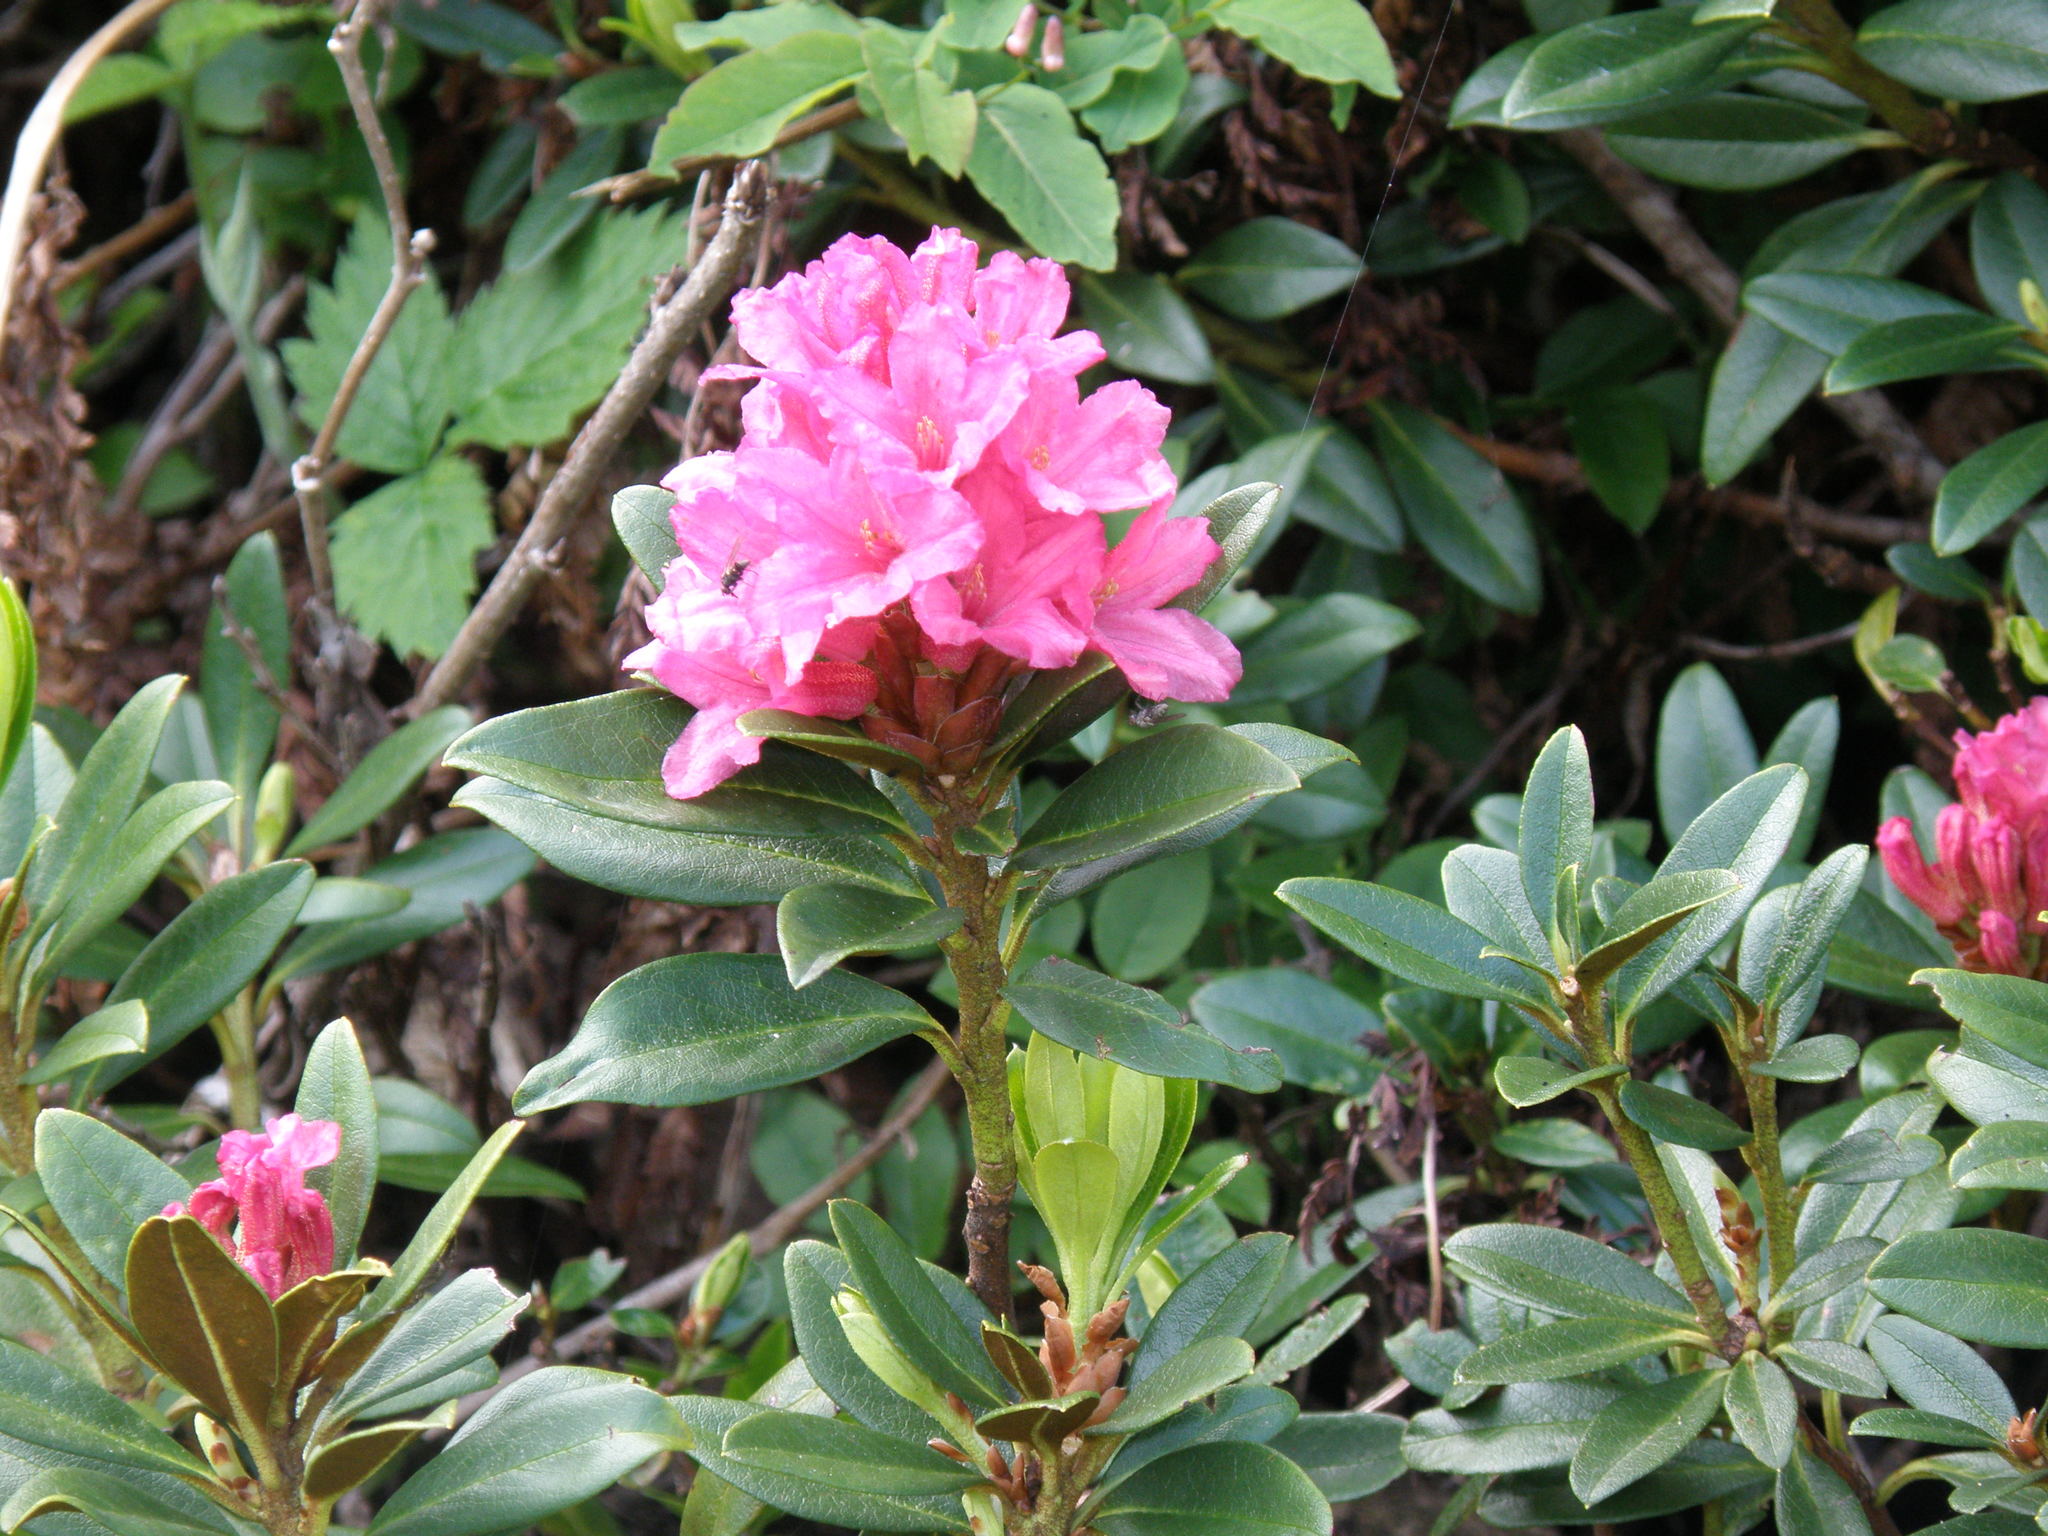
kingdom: Plantae
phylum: Tracheophyta
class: Magnoliopsida
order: Ericales
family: Ericaceae
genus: Rhododendron
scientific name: Rhododendron ferrugineum
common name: Alpenrose
